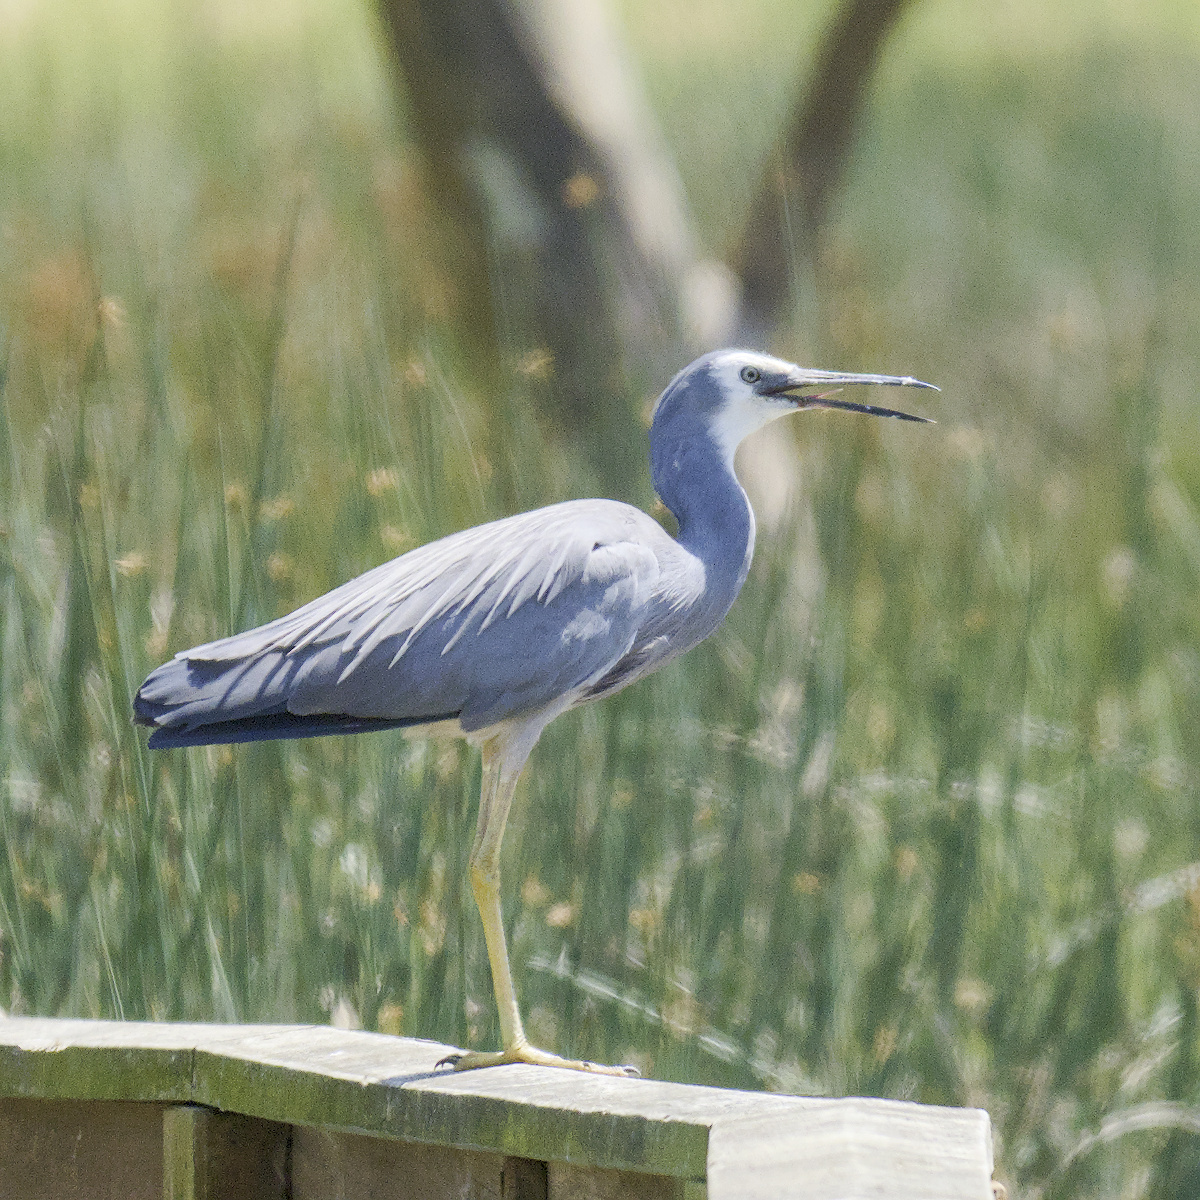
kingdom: Animalia
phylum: Chordata
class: Aves
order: Pelecaniformes
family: Ardeidae
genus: Egretta
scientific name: Egretta novaehollandiae
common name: White-faced heron
